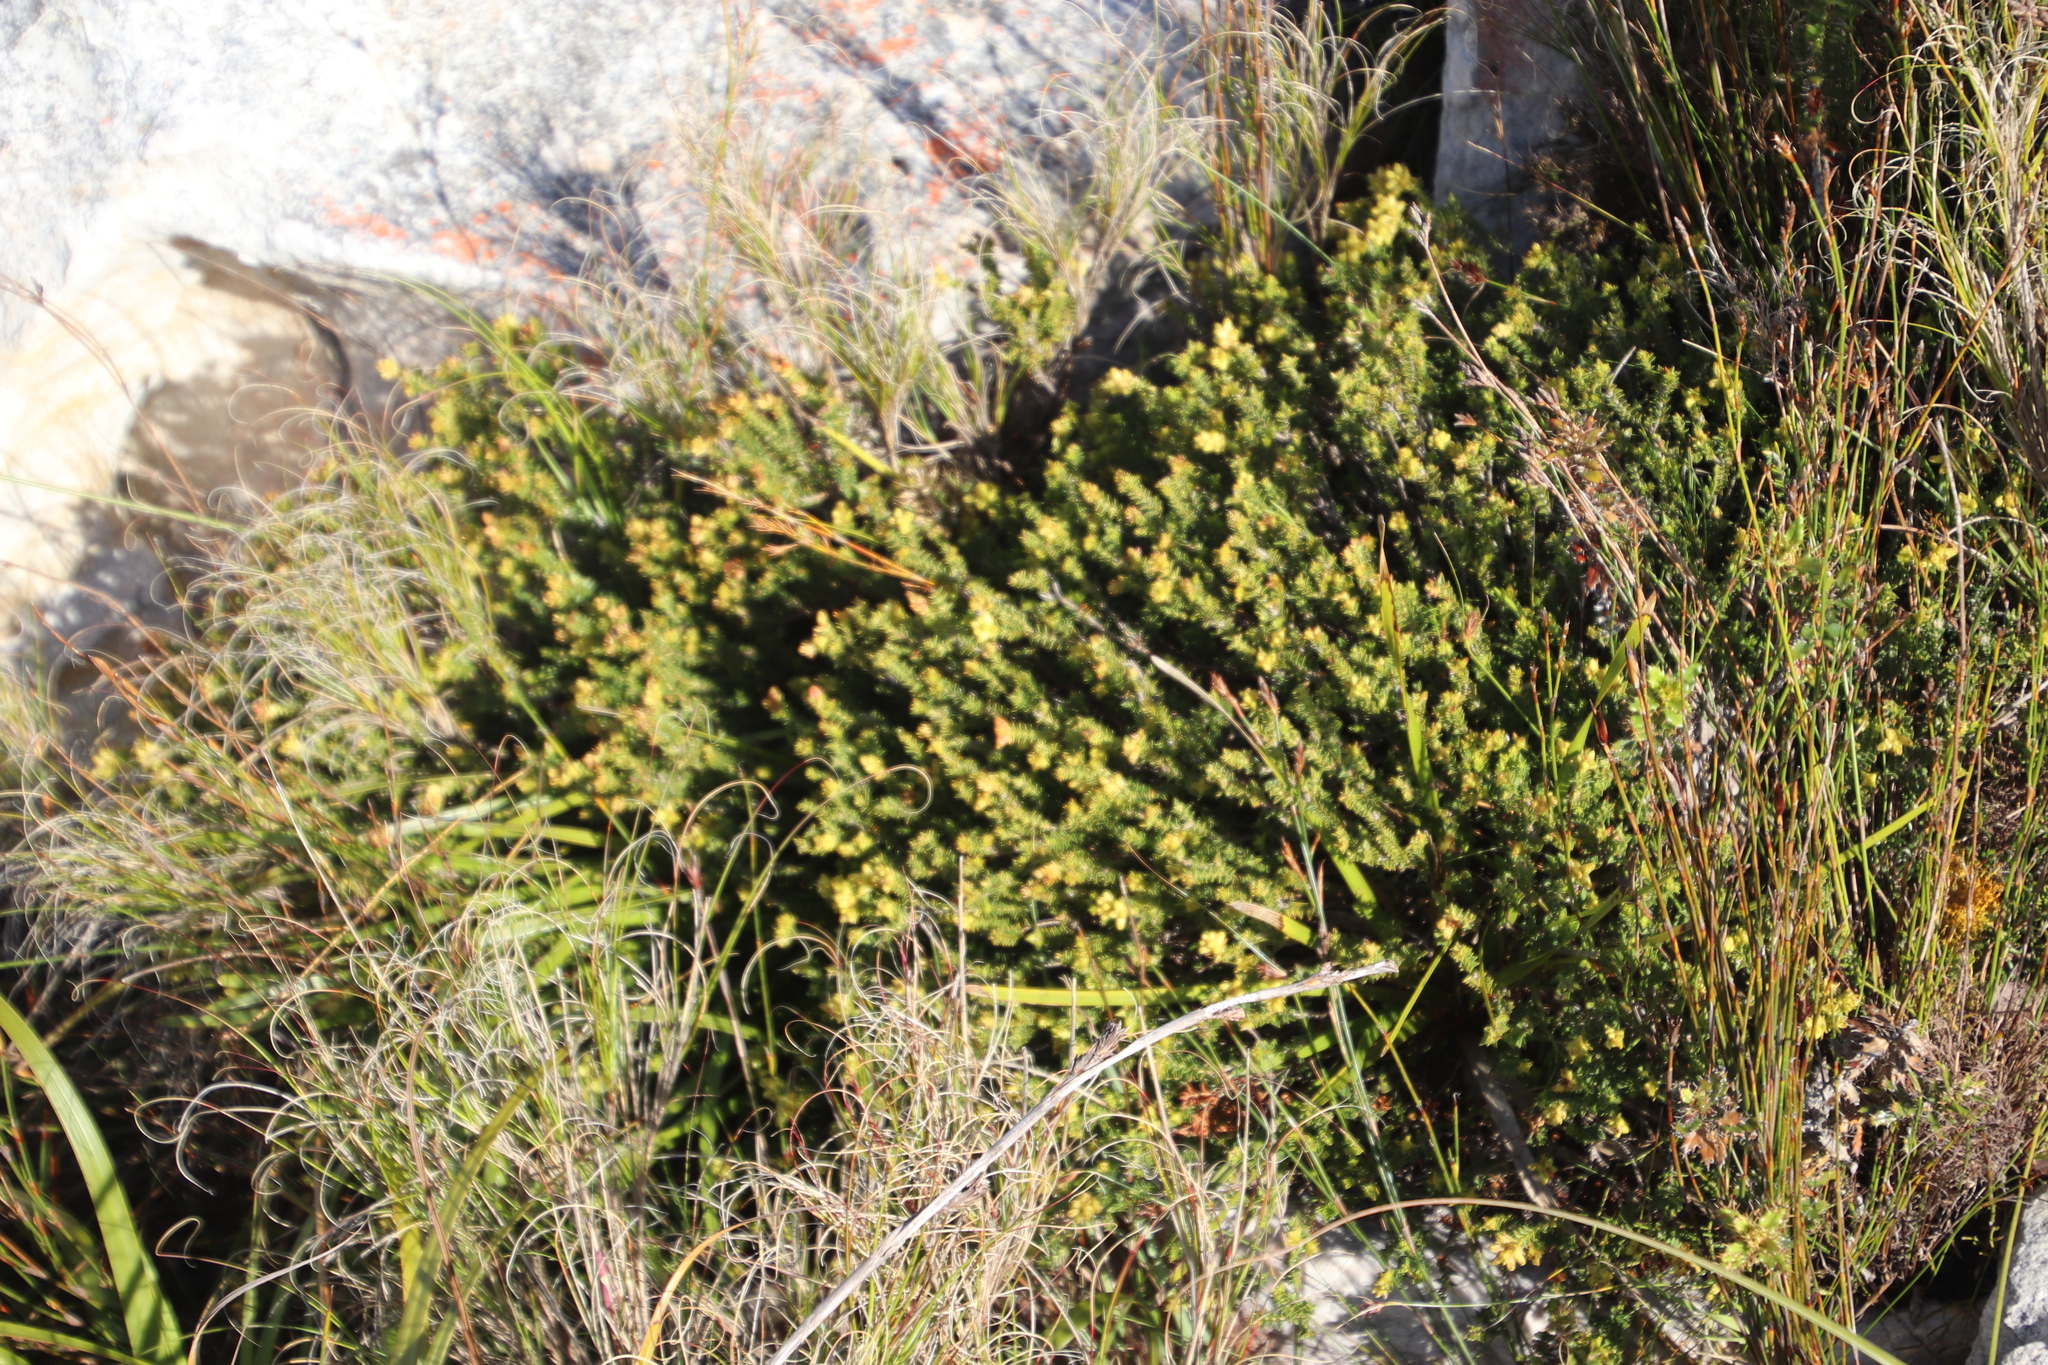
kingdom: Plantae
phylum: Tracheophyta
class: Magnoliopsida
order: Myrtales
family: Penaeaceae
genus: Penaea
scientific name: Penaea mucronata
